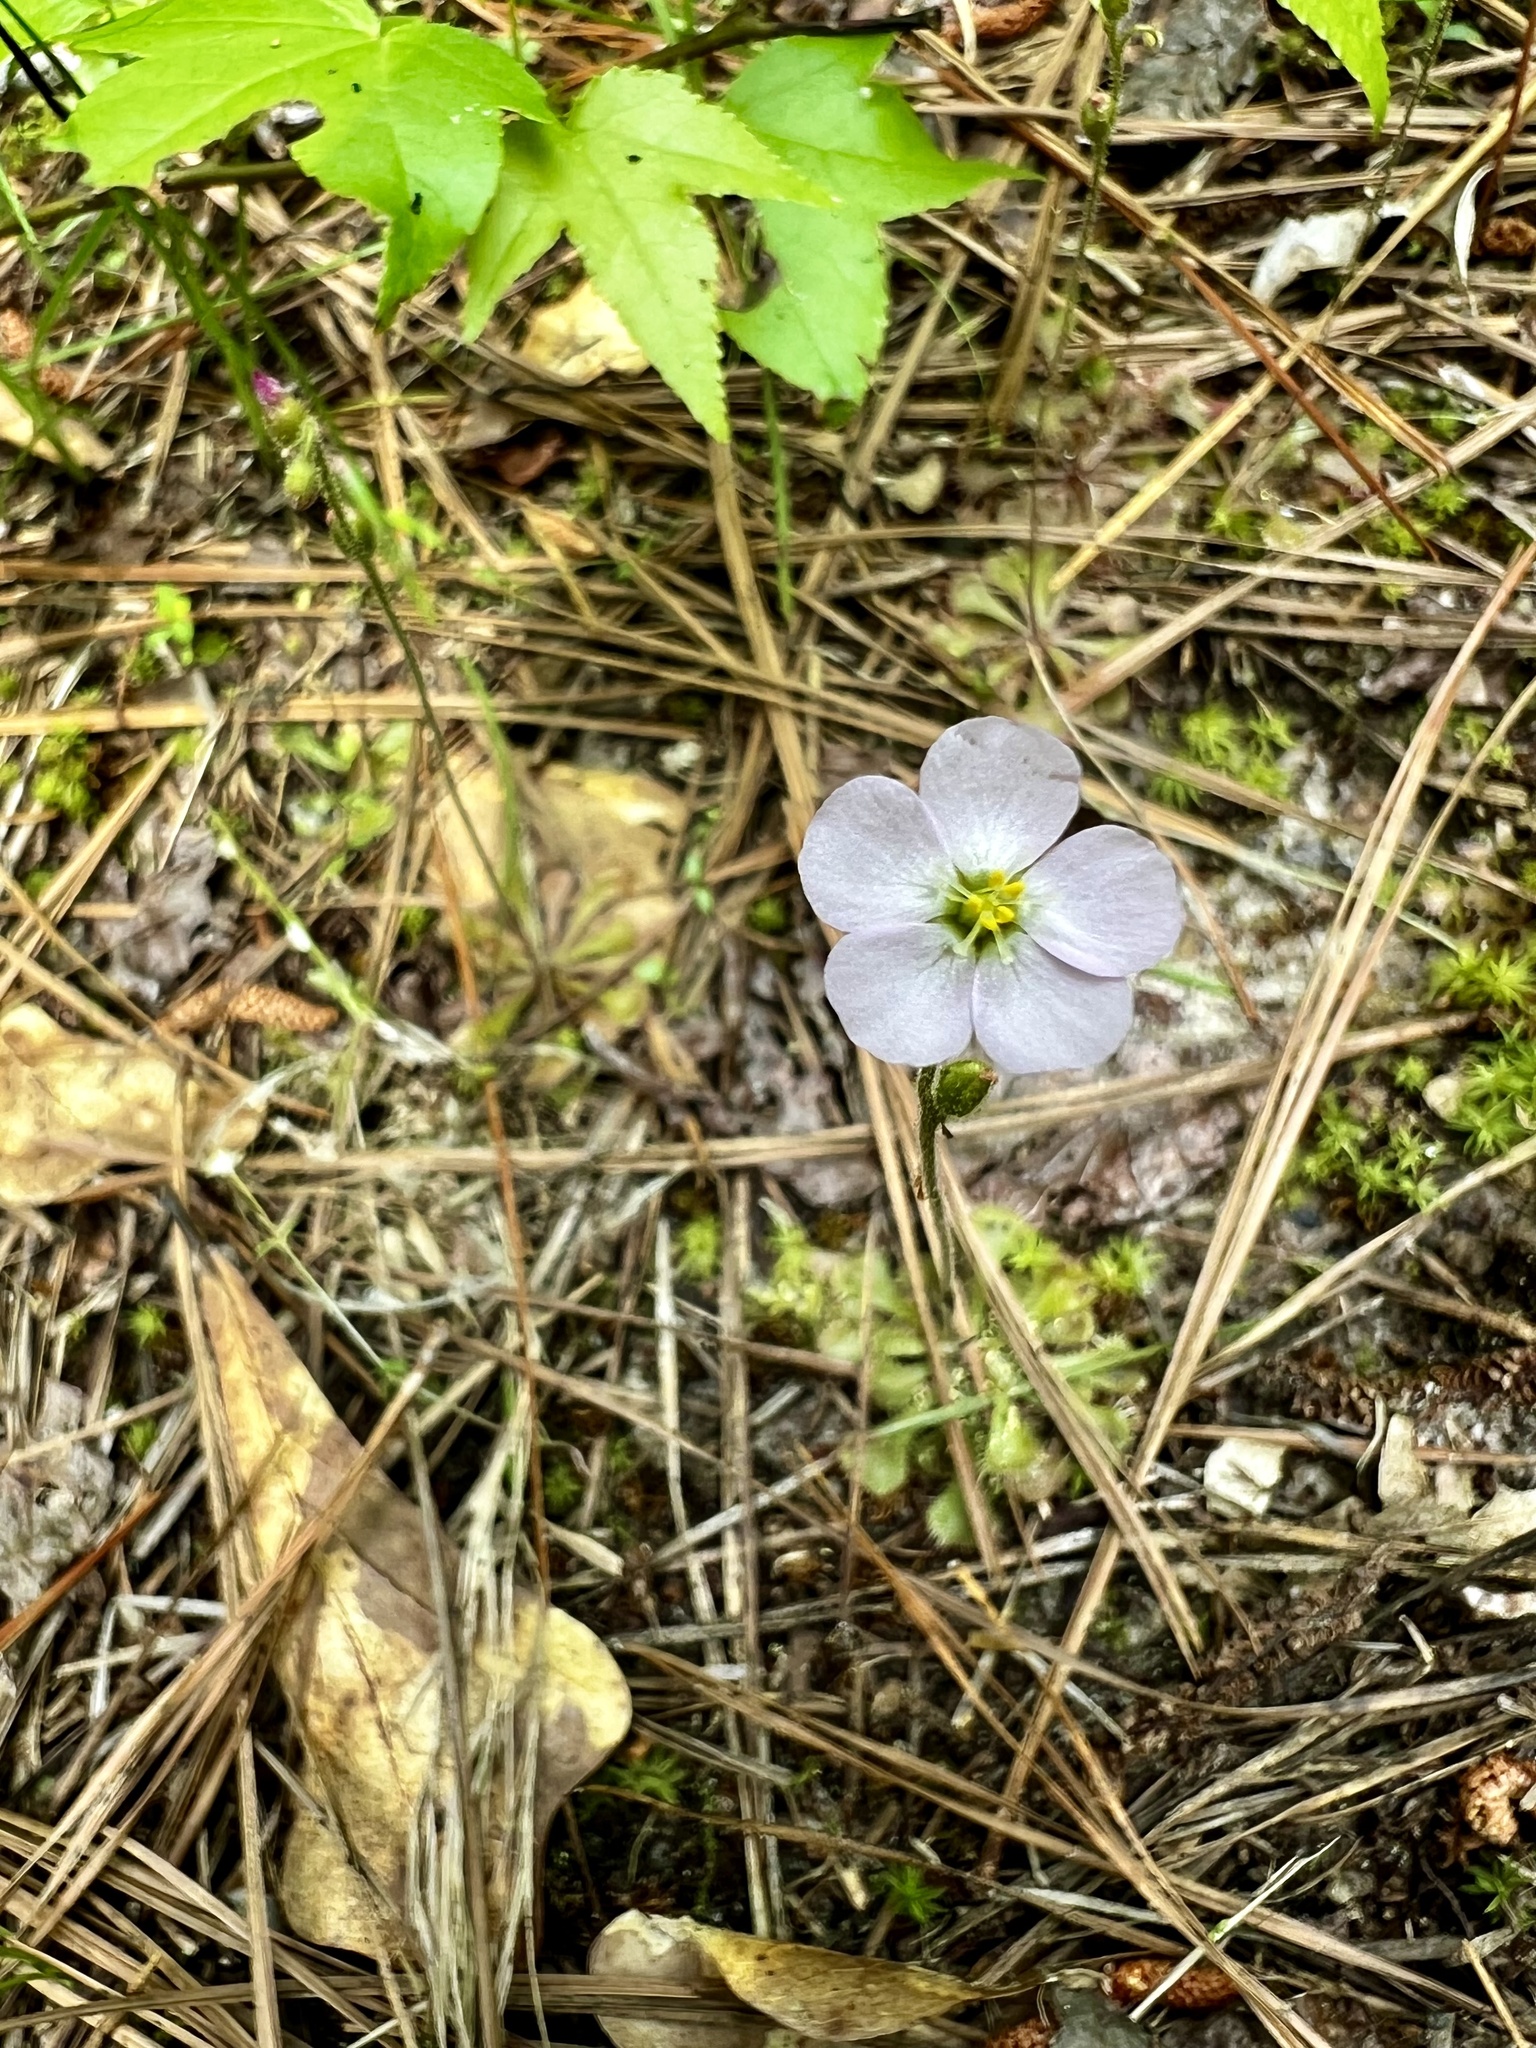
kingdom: Plantae
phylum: Tracheophyta
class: Magnoliopsida
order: Caryophyllales
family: Droseraceae
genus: Drosera
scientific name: Drosera brevifolia
